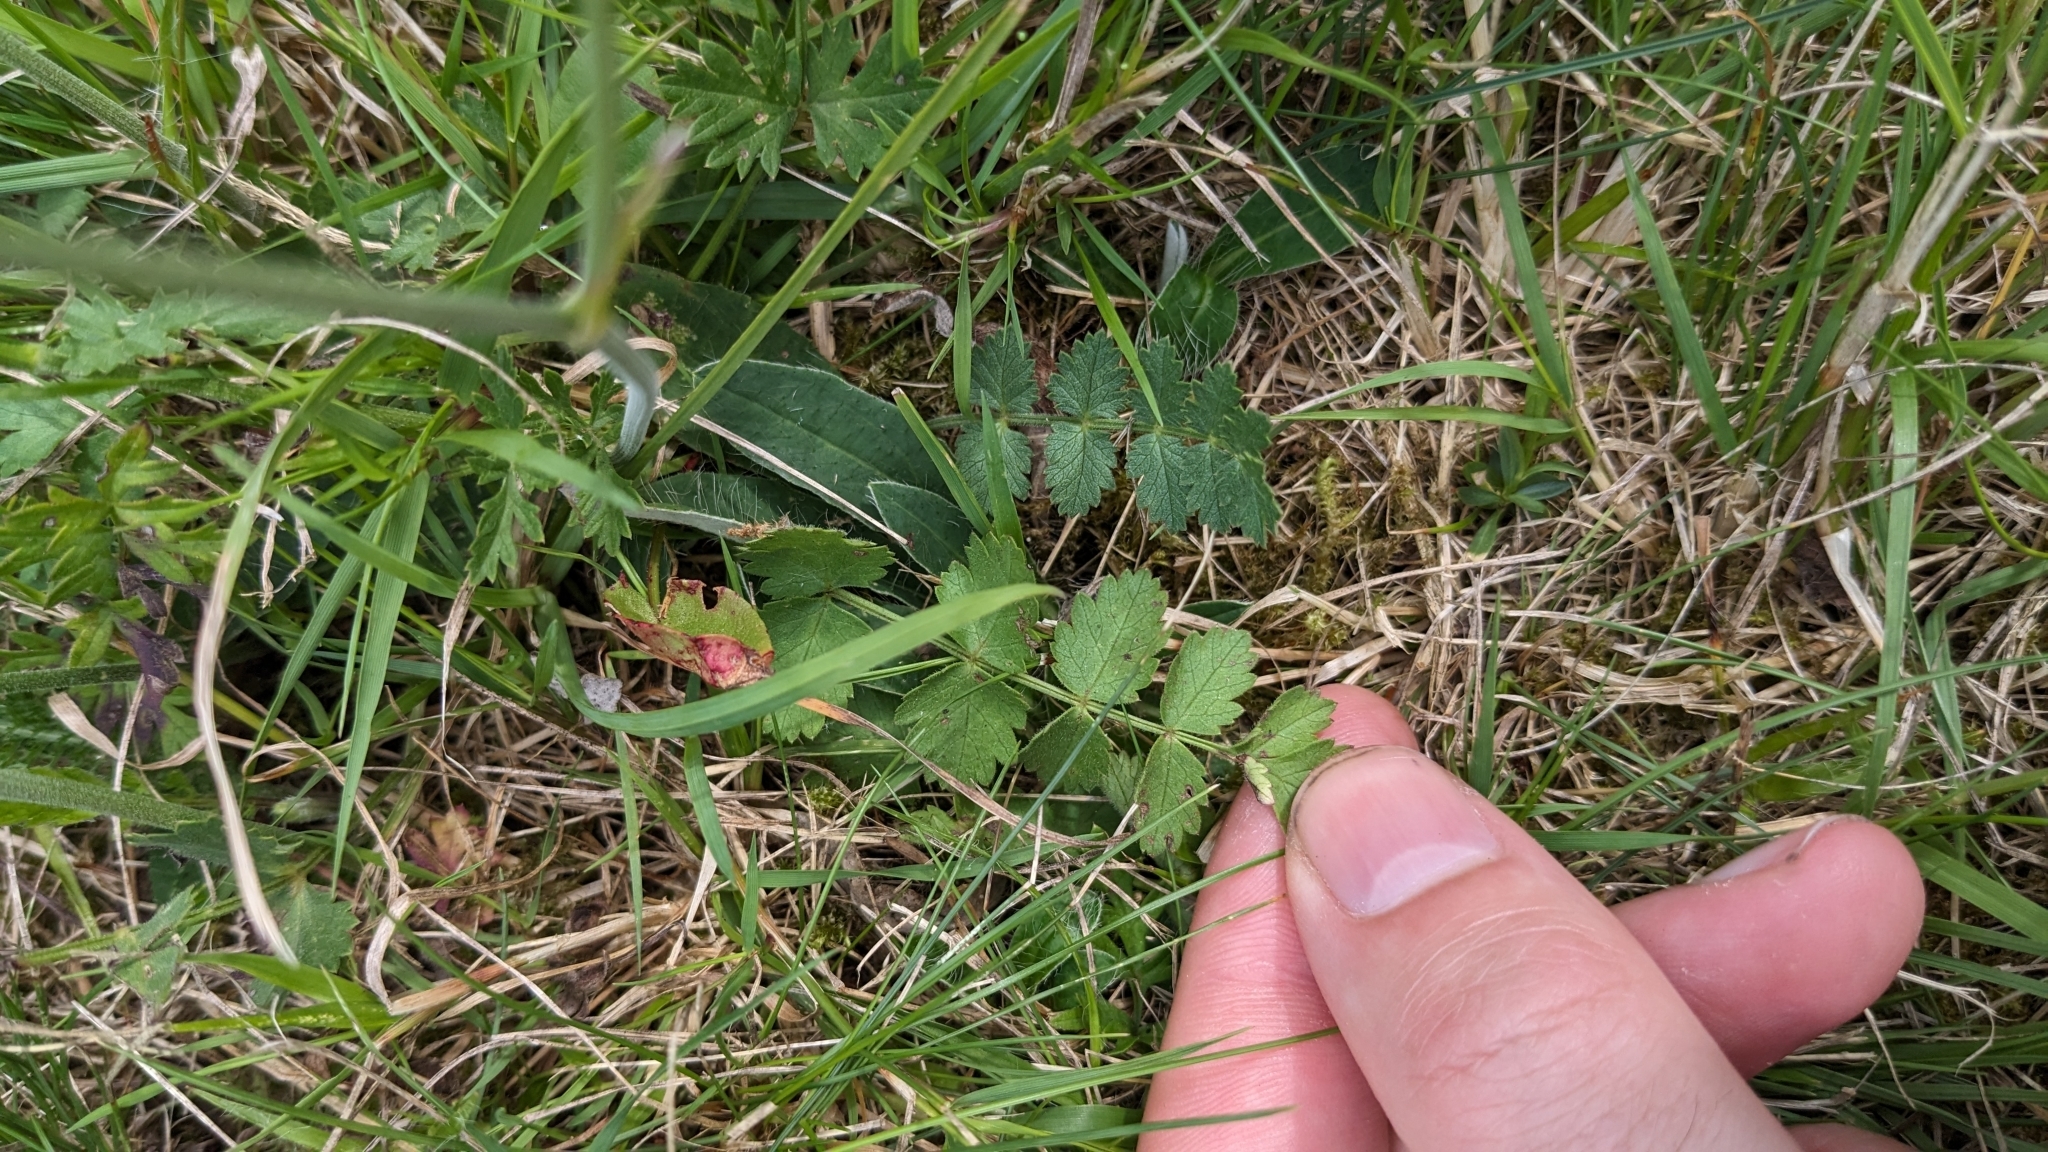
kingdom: Plantae
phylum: Tracheophyta
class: Magnoliopsida
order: Apiales
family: Apiaceae
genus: Pimpinella
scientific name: Pimpinella saxifraga
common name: Burnet-saxifrage
